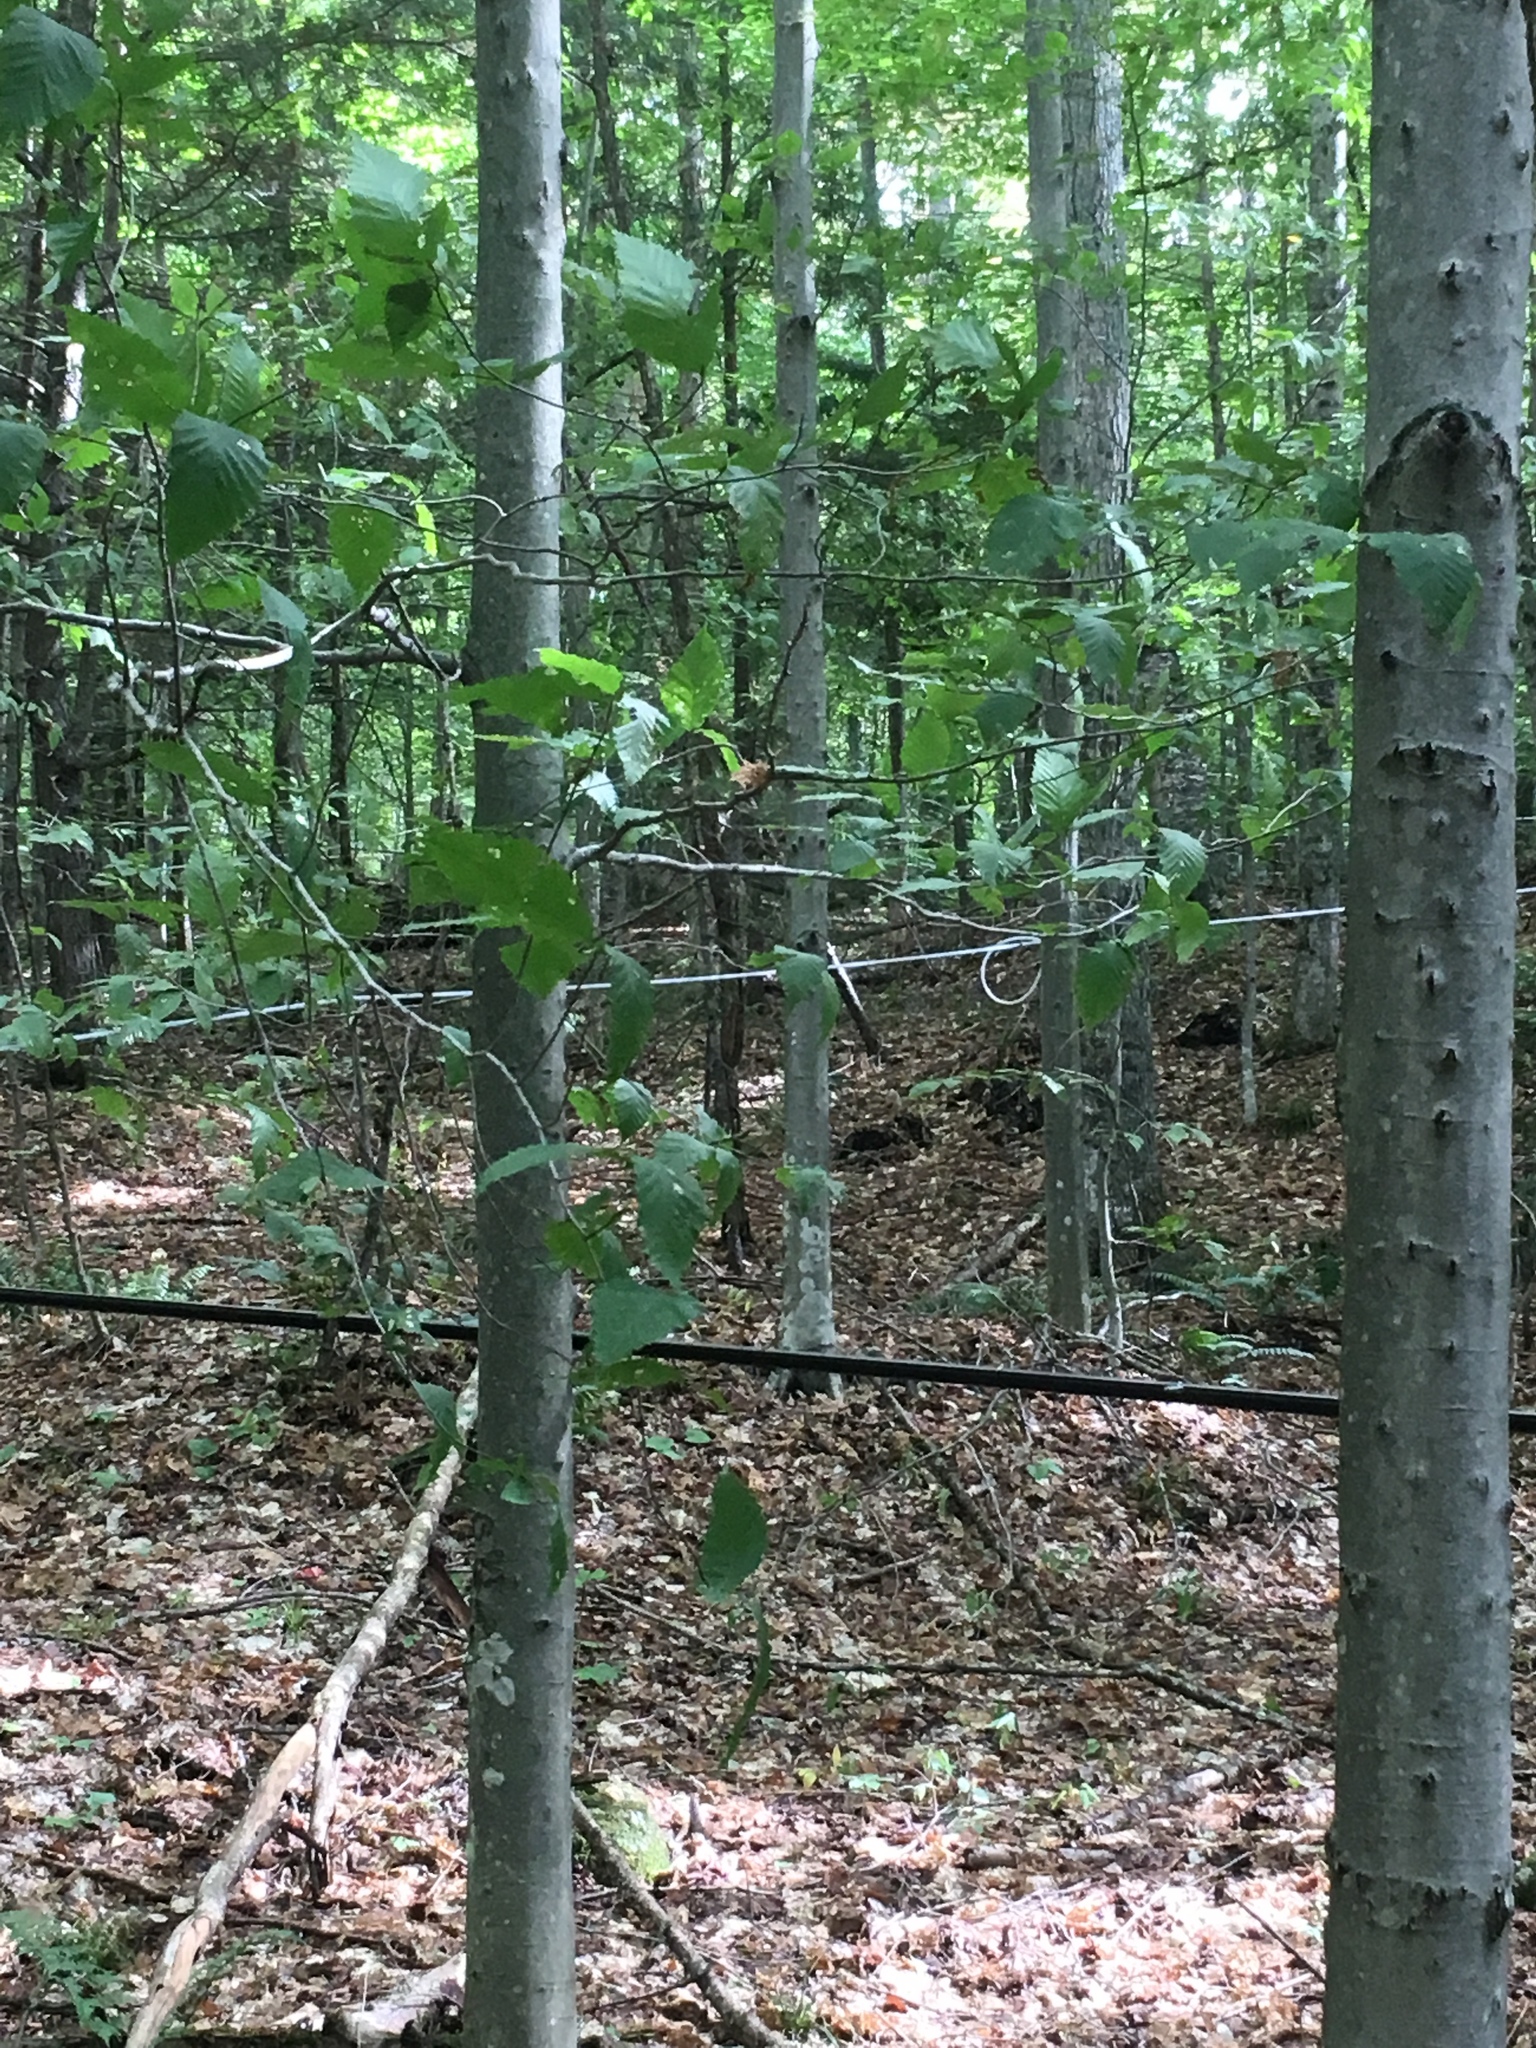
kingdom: Plantae
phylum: Tracheophyta
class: Magnoliopsida
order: Fagales
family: Fagaceae
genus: Fagus
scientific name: Fagus grandifolia
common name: American beech
